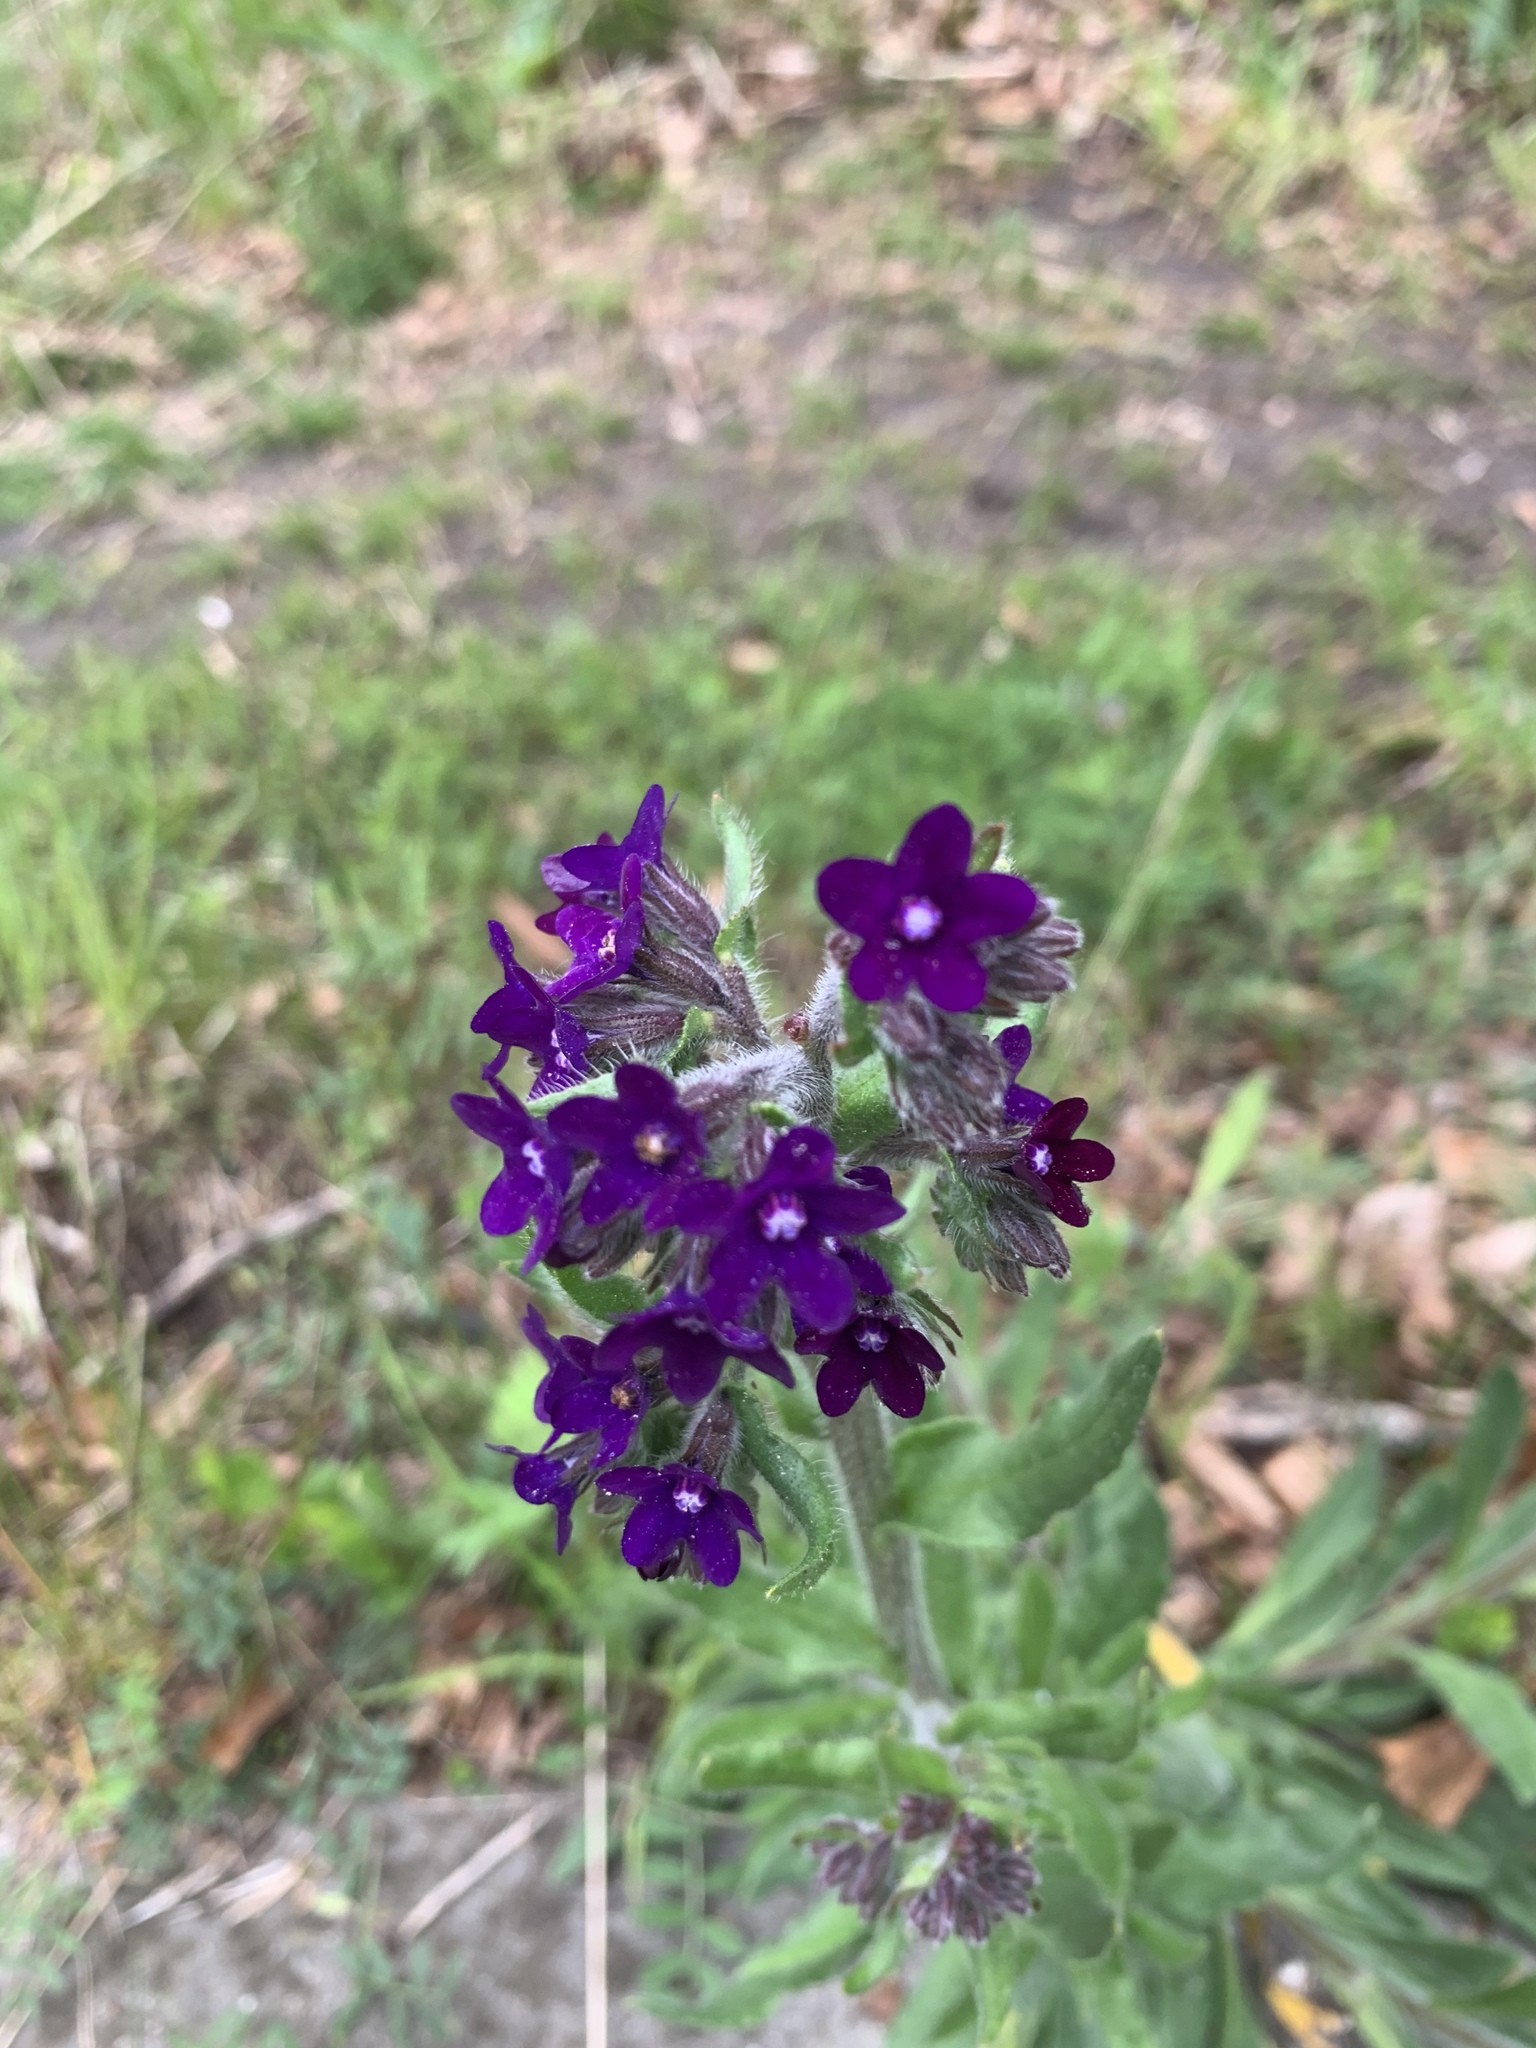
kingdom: Plantae
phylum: Tracheophyta
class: Magnoliopsida
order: Boraginales
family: Boraginaceae
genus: Anchusa
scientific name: Anchusa officinalis
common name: Alkanet
